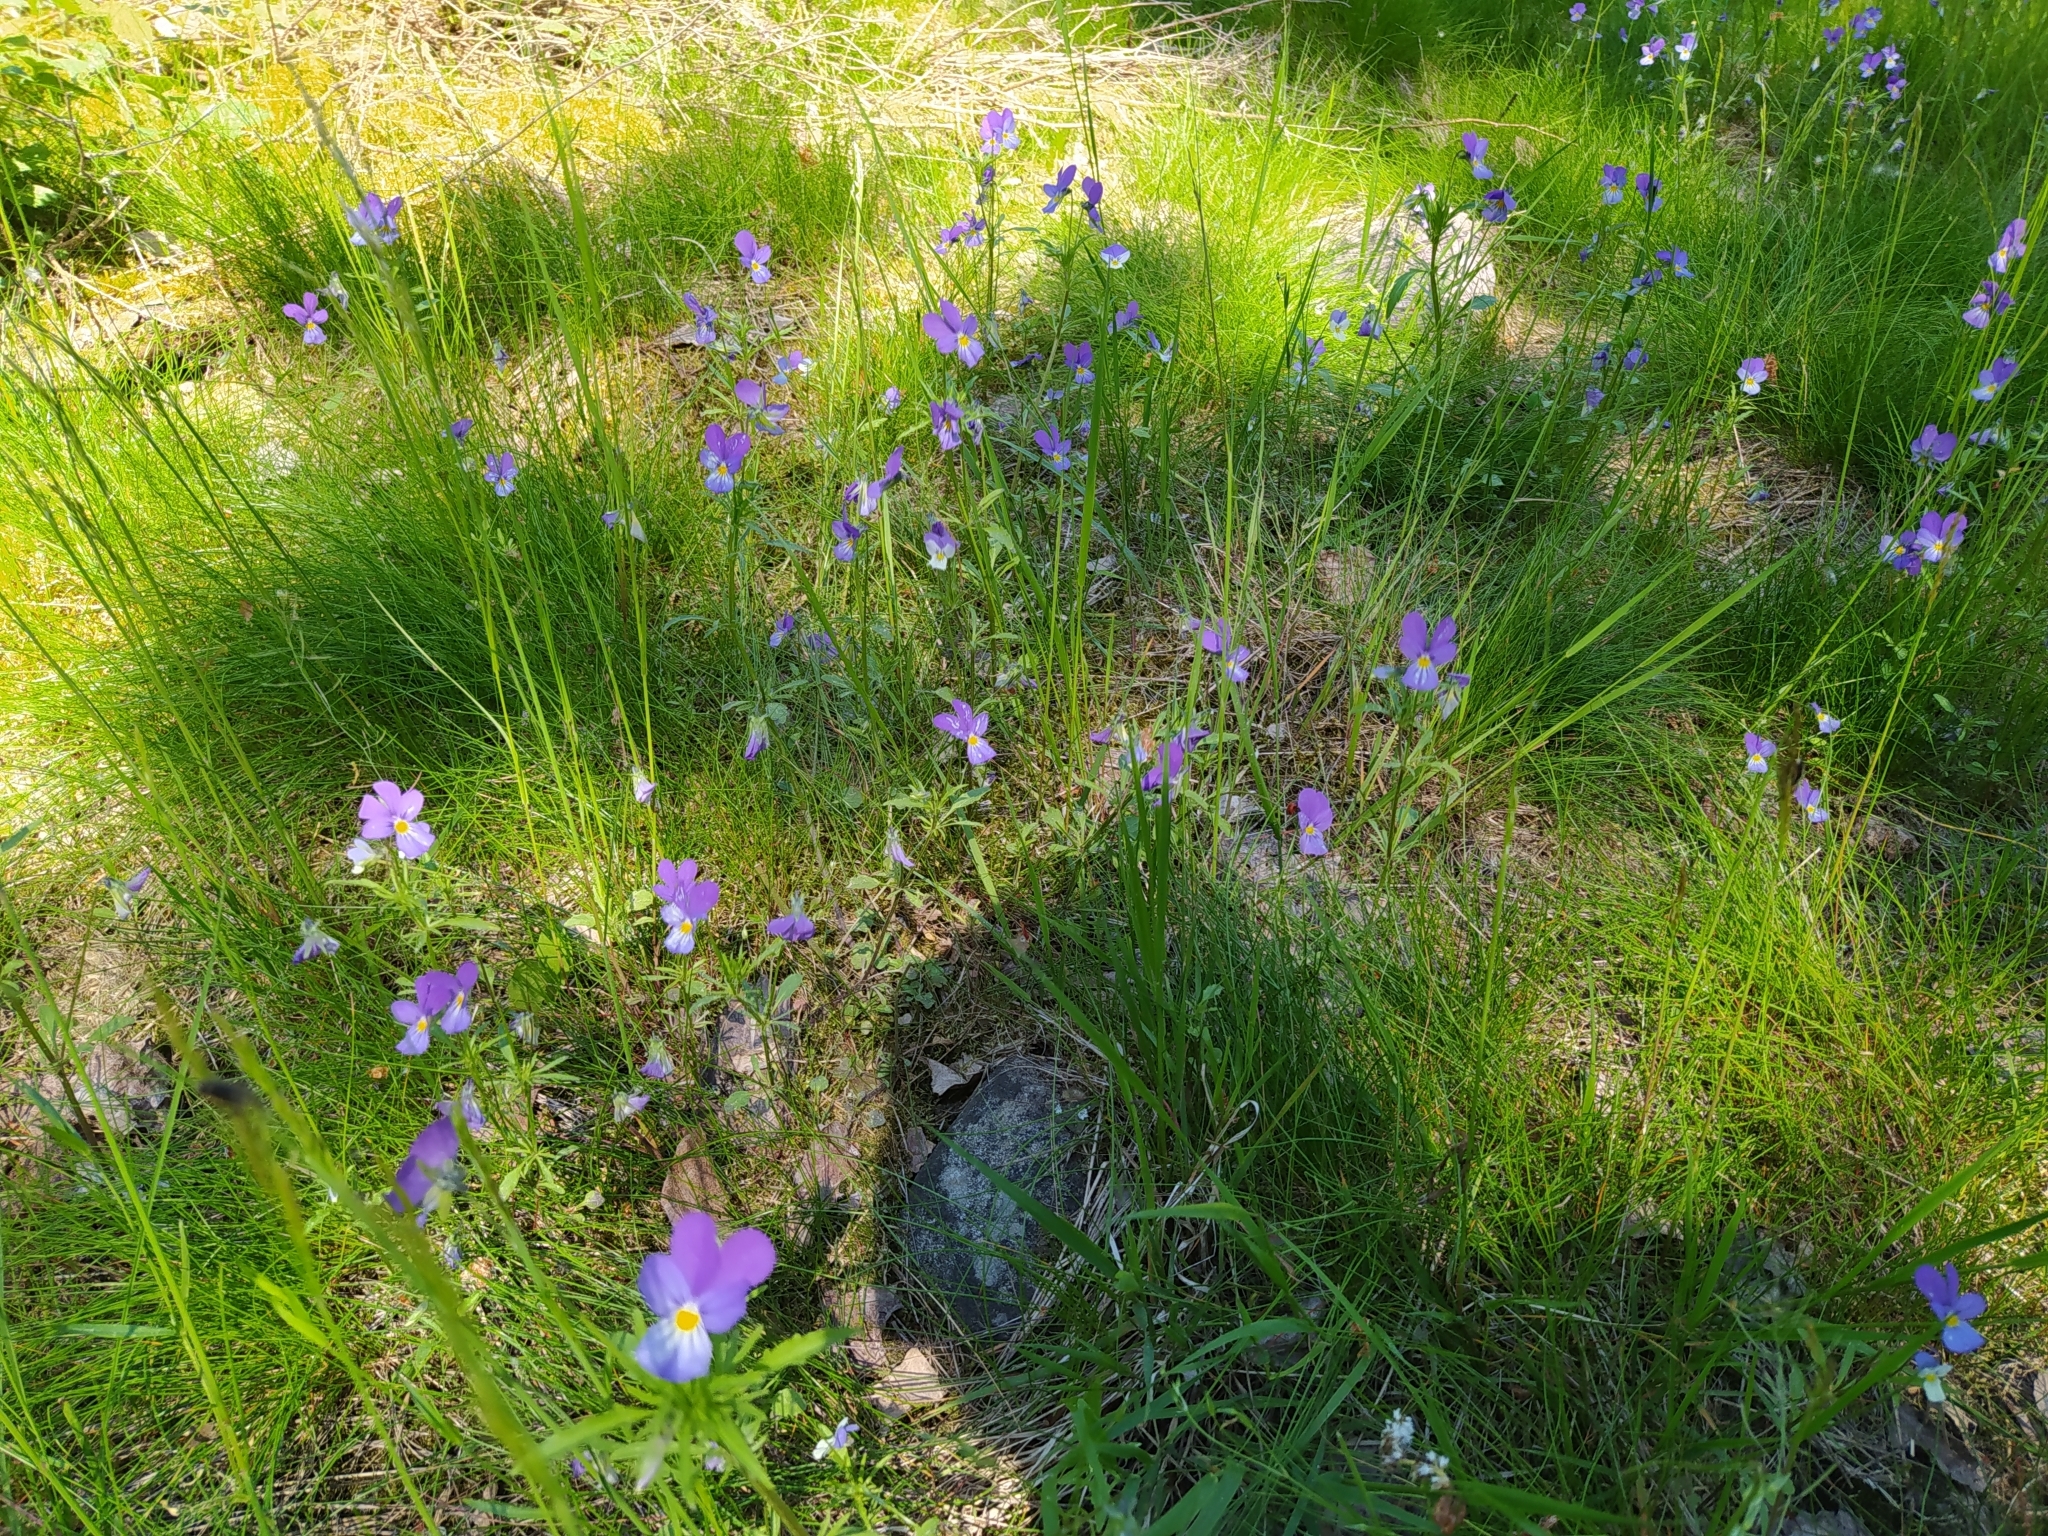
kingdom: Plantae
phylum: Tracheophyta
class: Magnoliopsida
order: Malpighiales
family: Violaceae
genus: Viola
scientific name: Viola tricolor
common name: Pansy
